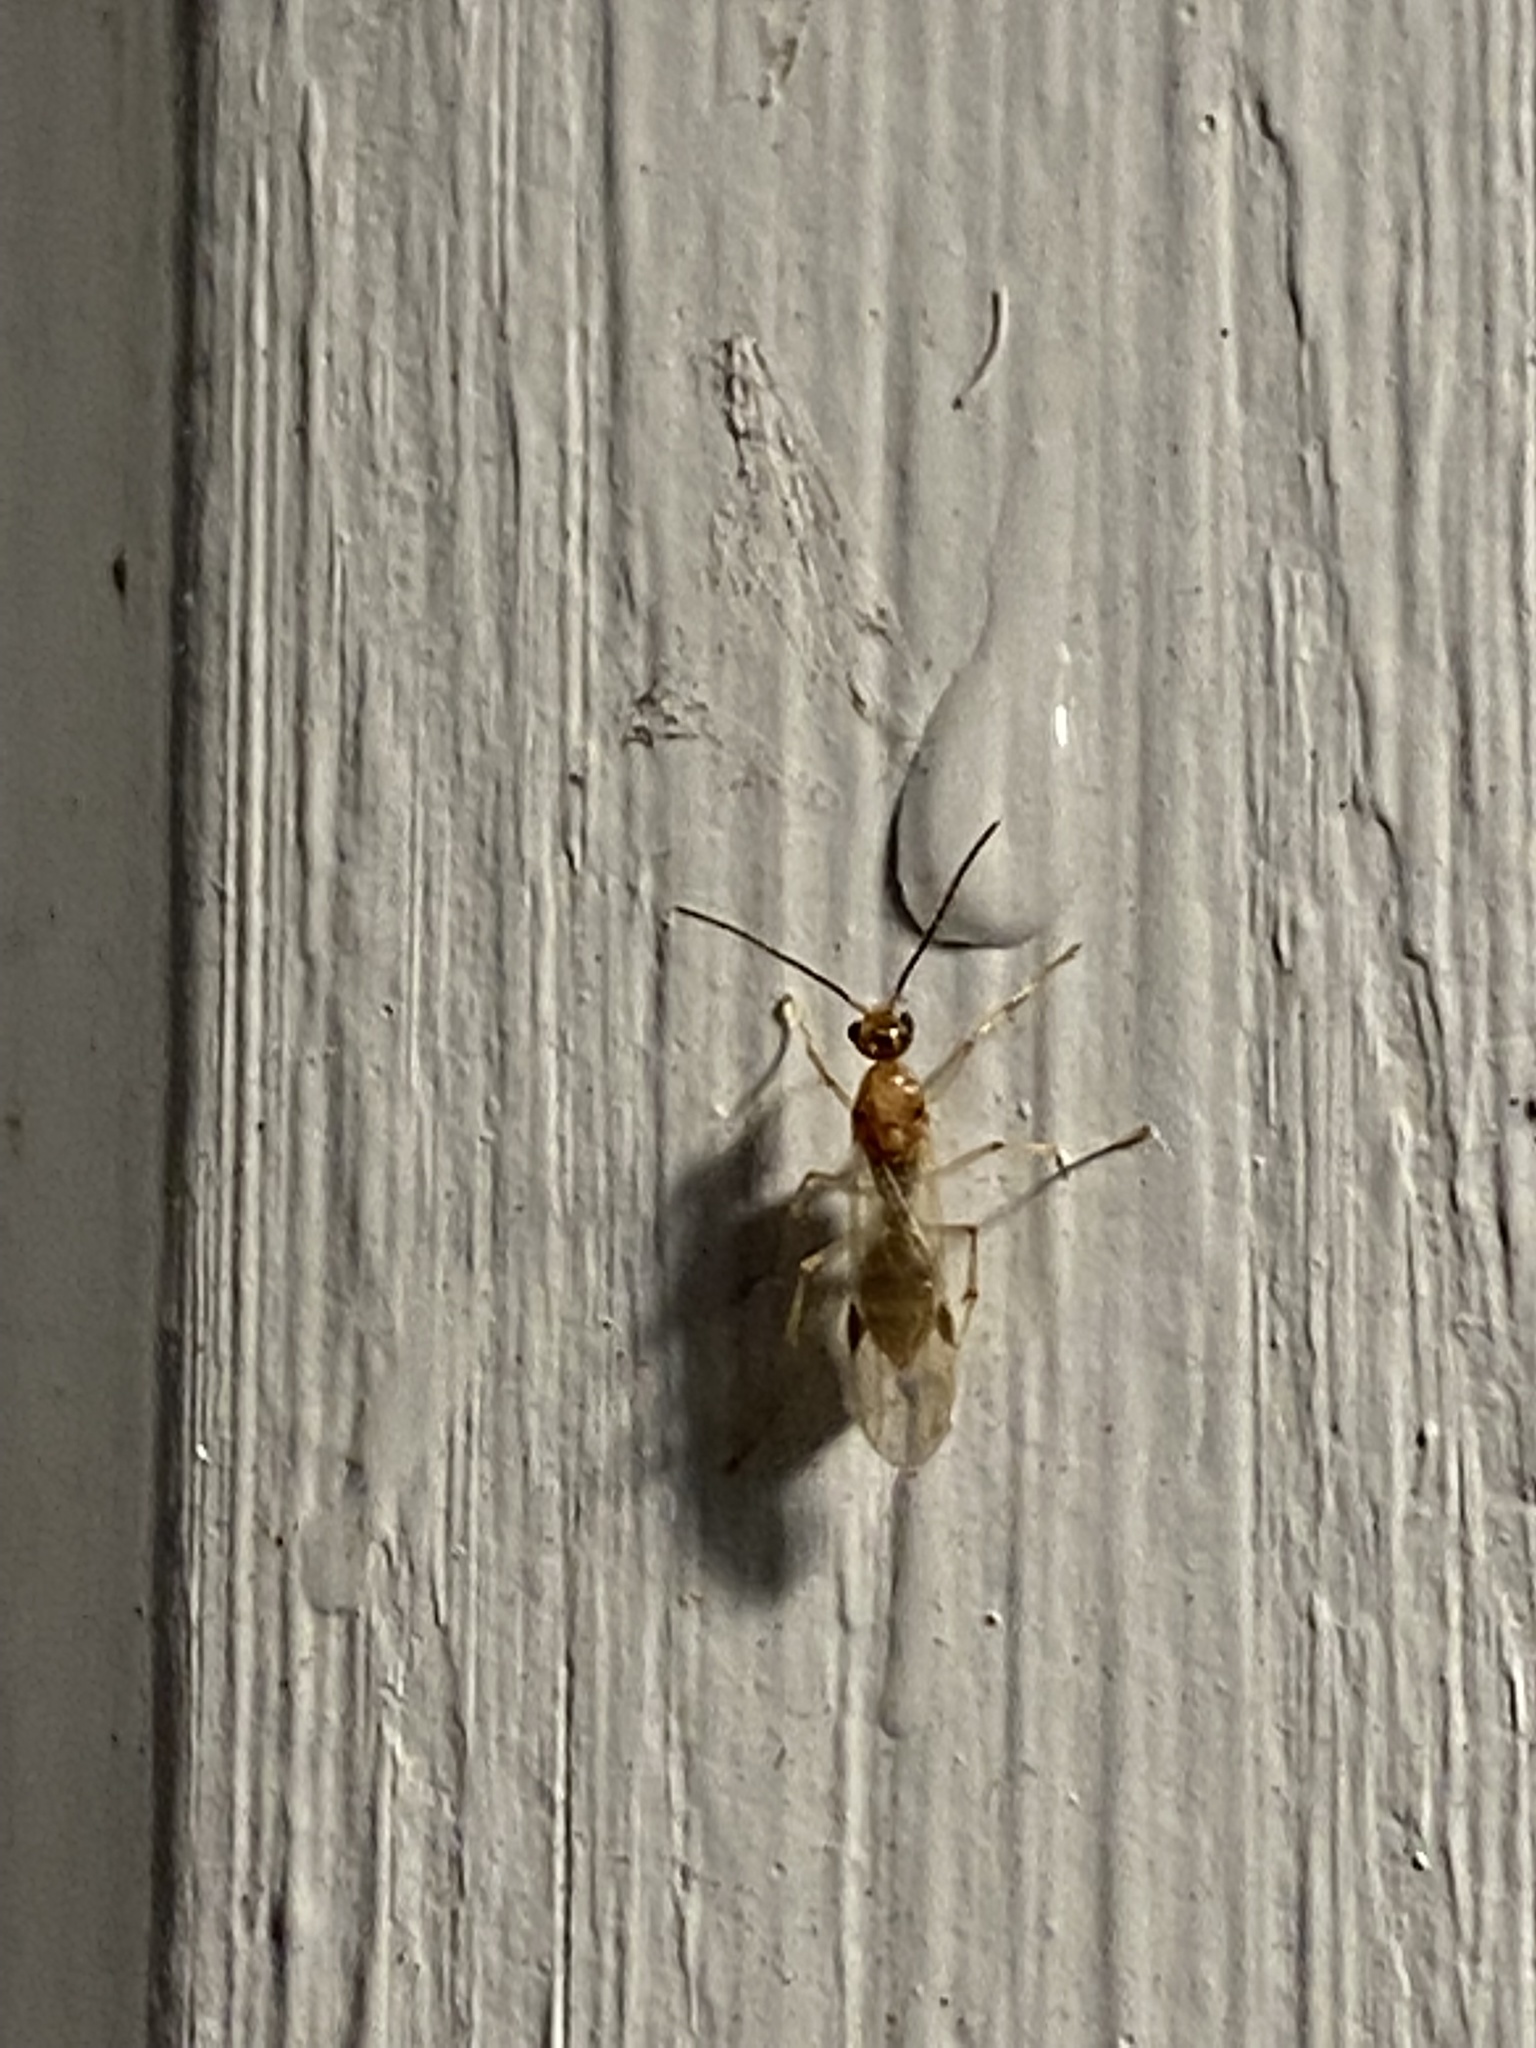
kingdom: Animalia
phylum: Arthropoda
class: Insecta
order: Hymenoptera
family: Formicidae
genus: Pachycondyla
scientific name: Pachycondyla chinensis
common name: Asian needle ant
